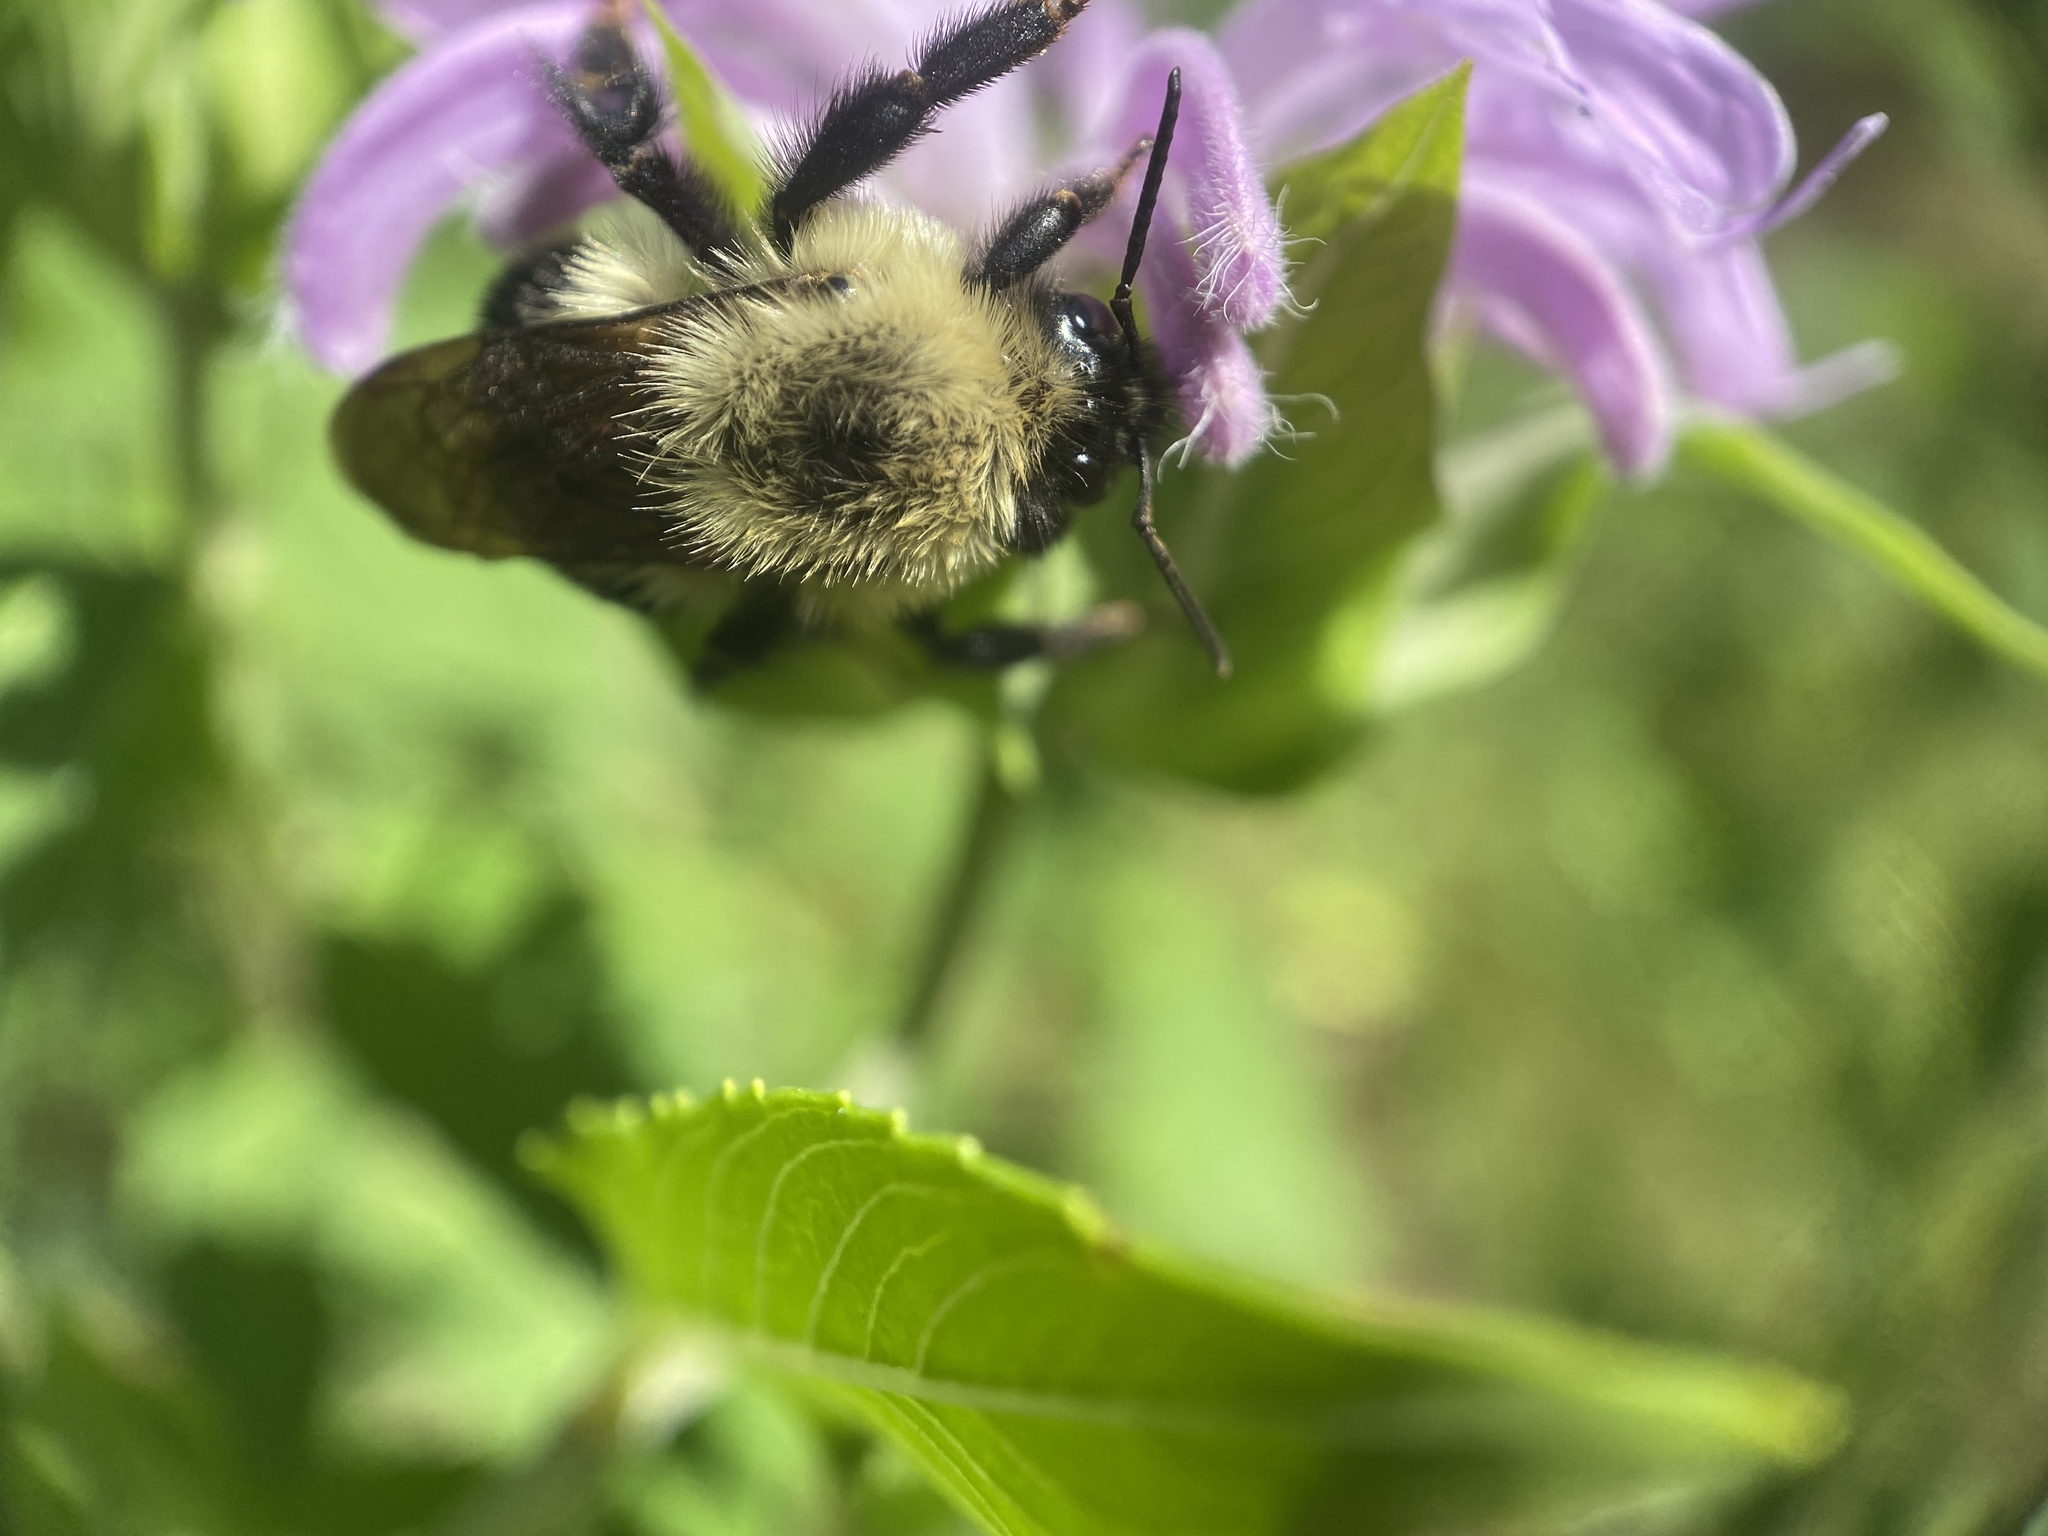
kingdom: Animalia
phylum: Arthropoda
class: Insecta
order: Hymenoptera
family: Apidae
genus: Bombus
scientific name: Bombus bimaculatus
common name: Two-spotted bumble bee
